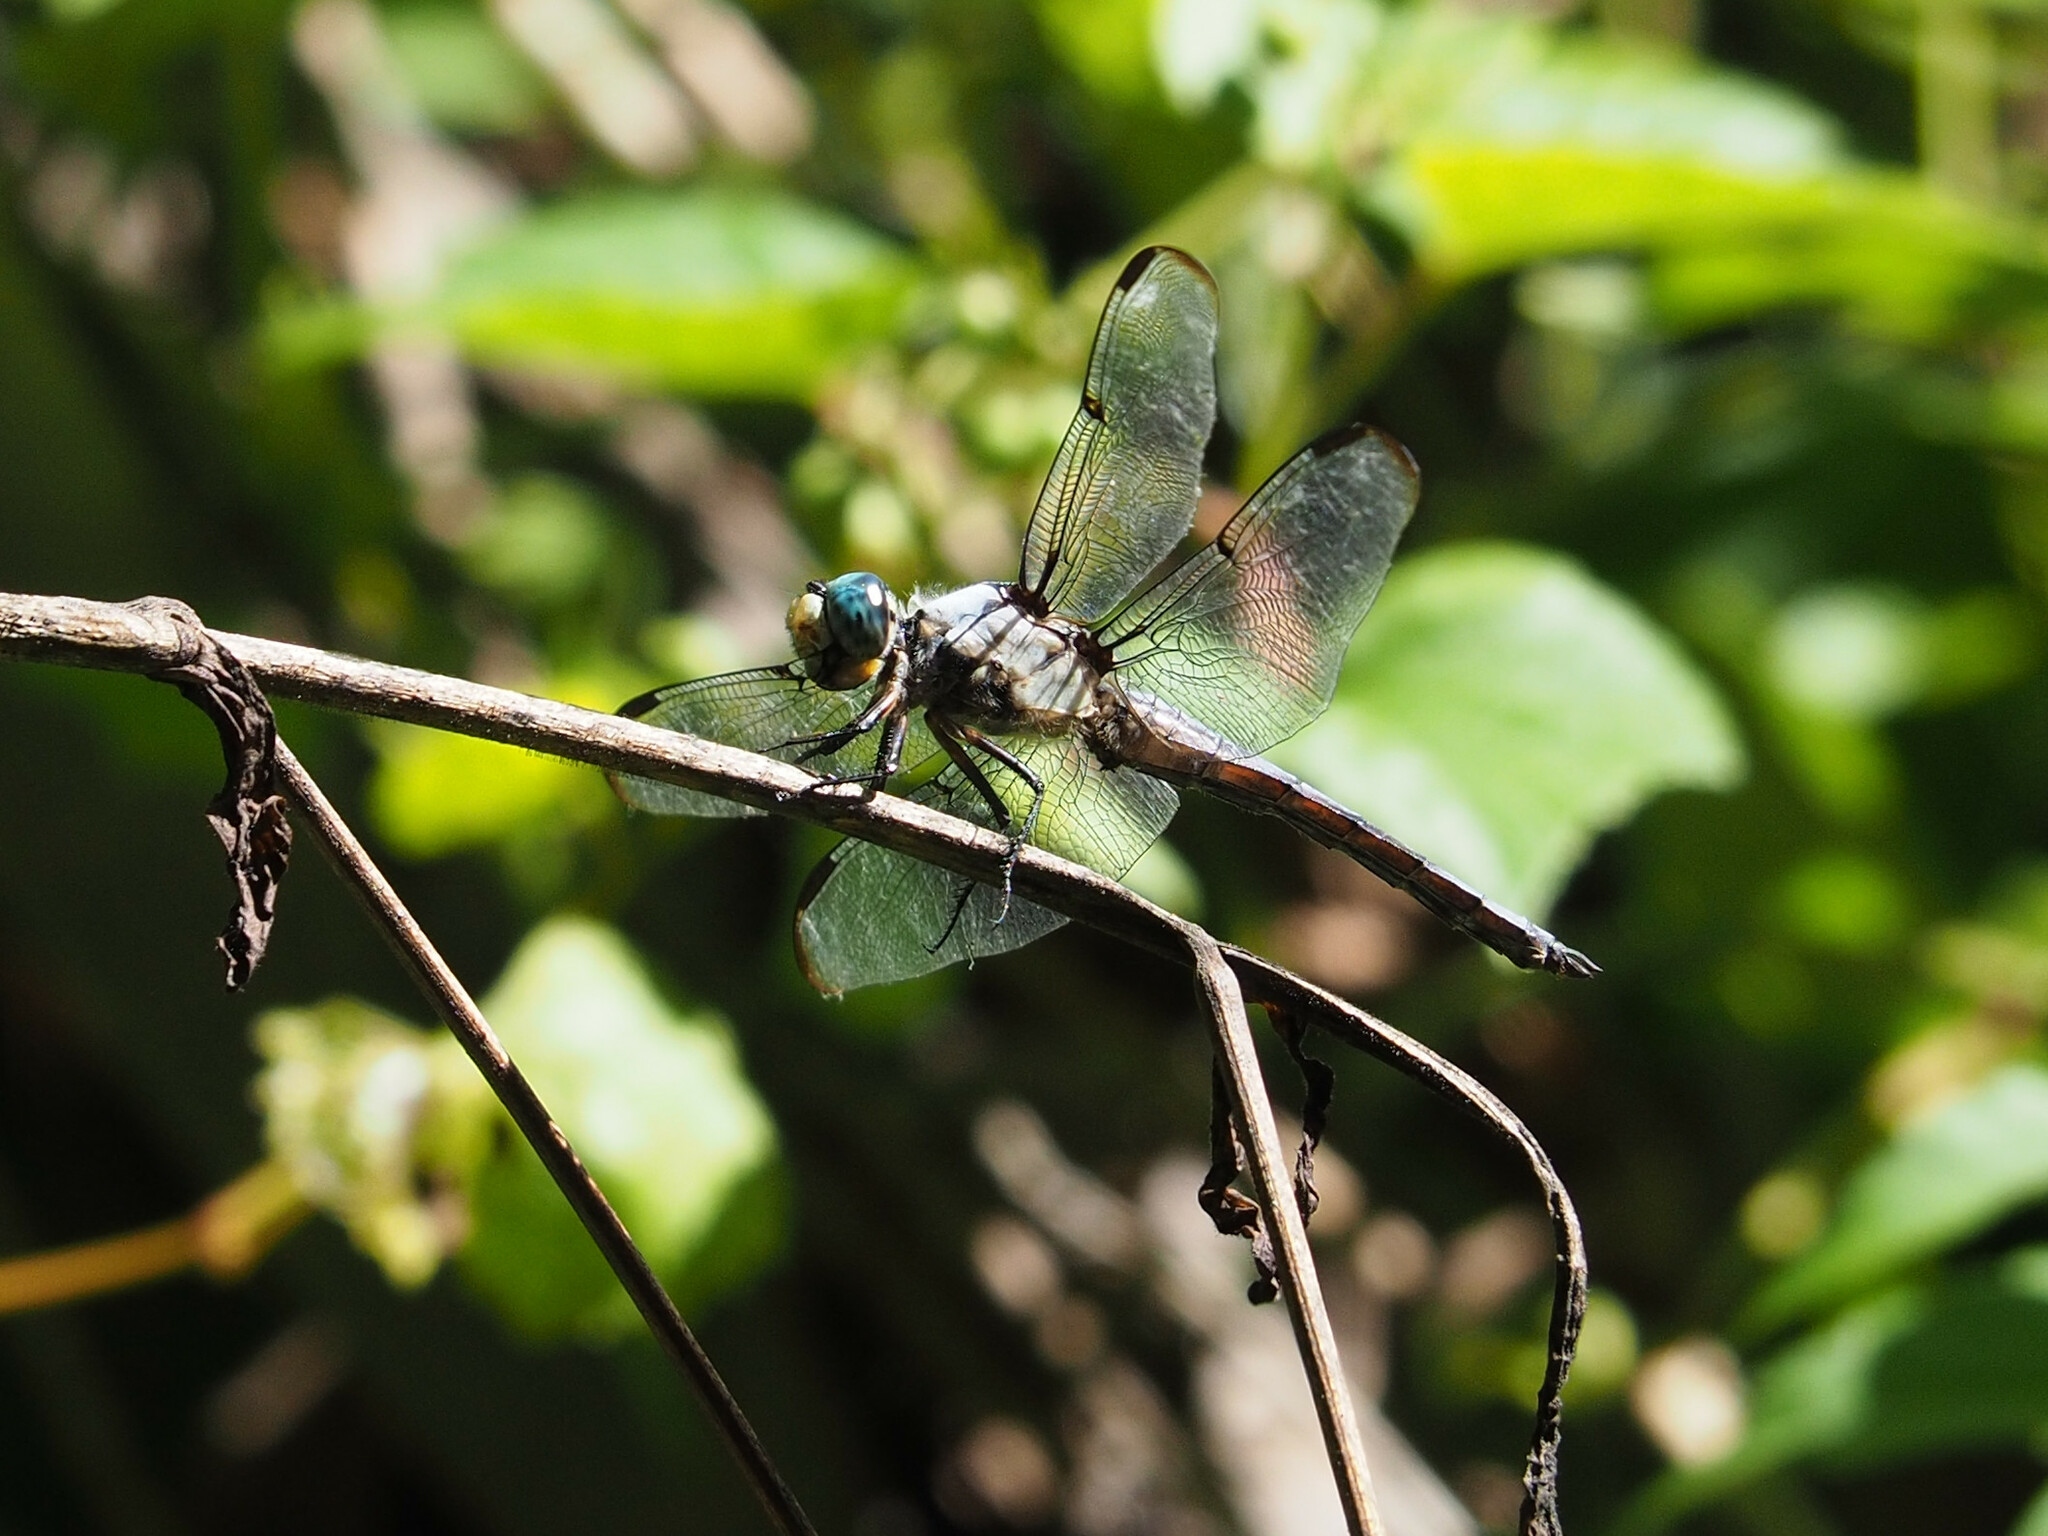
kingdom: Animalia
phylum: Arthropoda
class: Insecta
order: Odonata
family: Libellulidae
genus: Libellula
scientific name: Libellula vibrans
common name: Great blue skimmer
